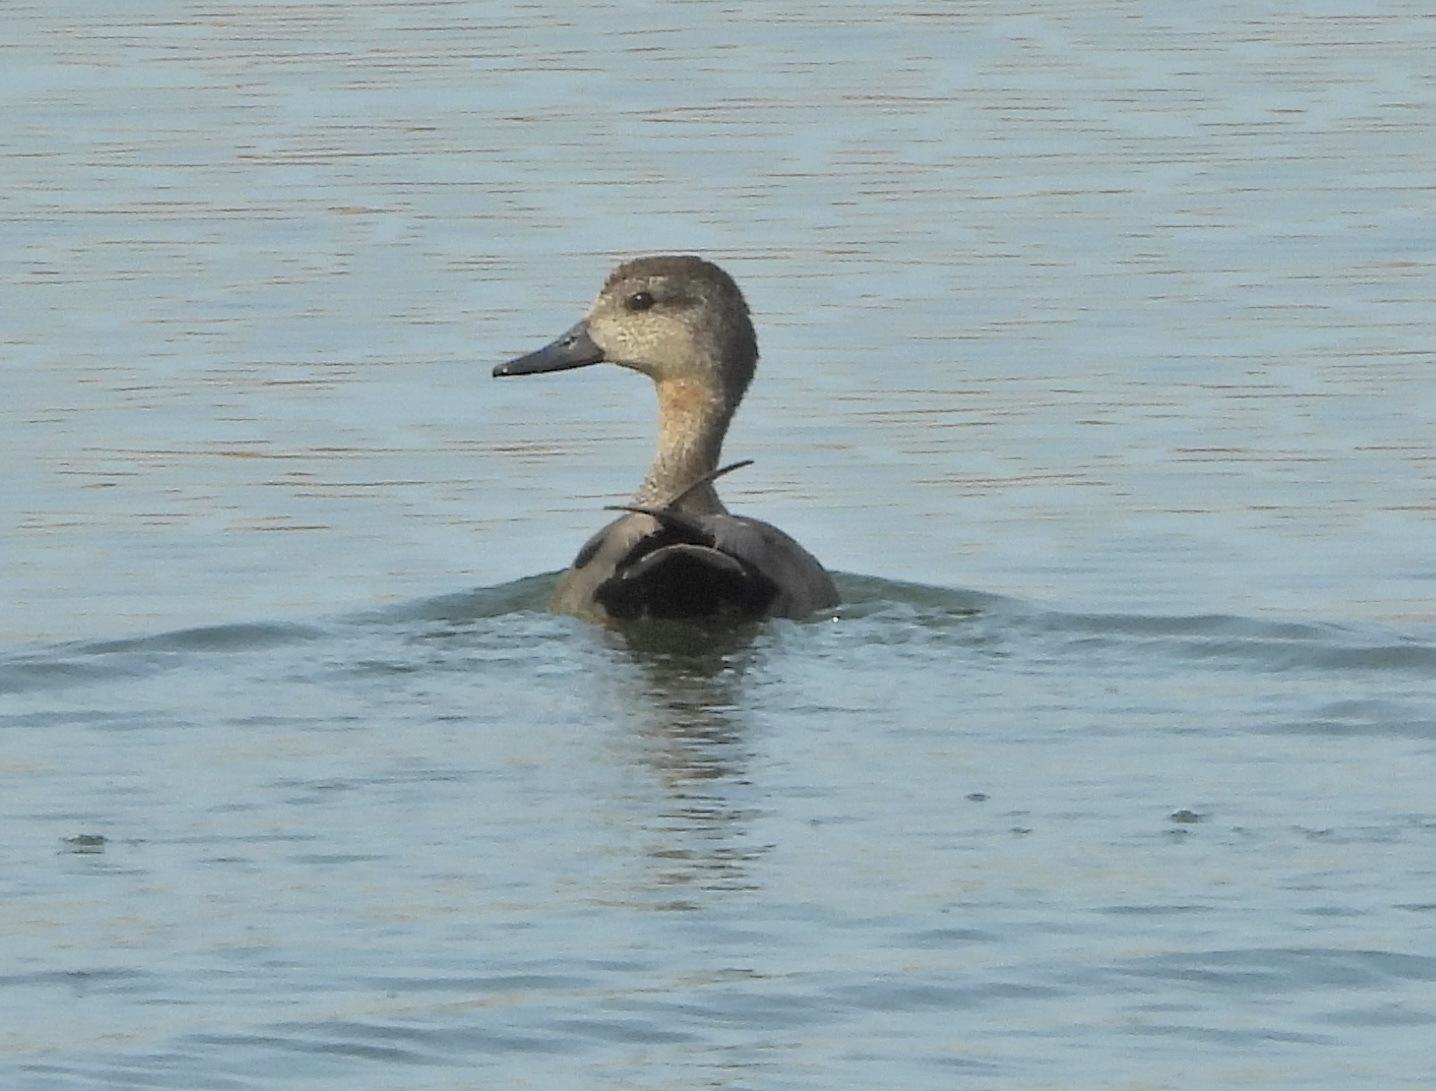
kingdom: Animalia
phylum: Chordata
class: Aves
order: Anseriformes
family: Anatidae
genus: Mareca
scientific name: Mareca strepera
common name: Gadwall
